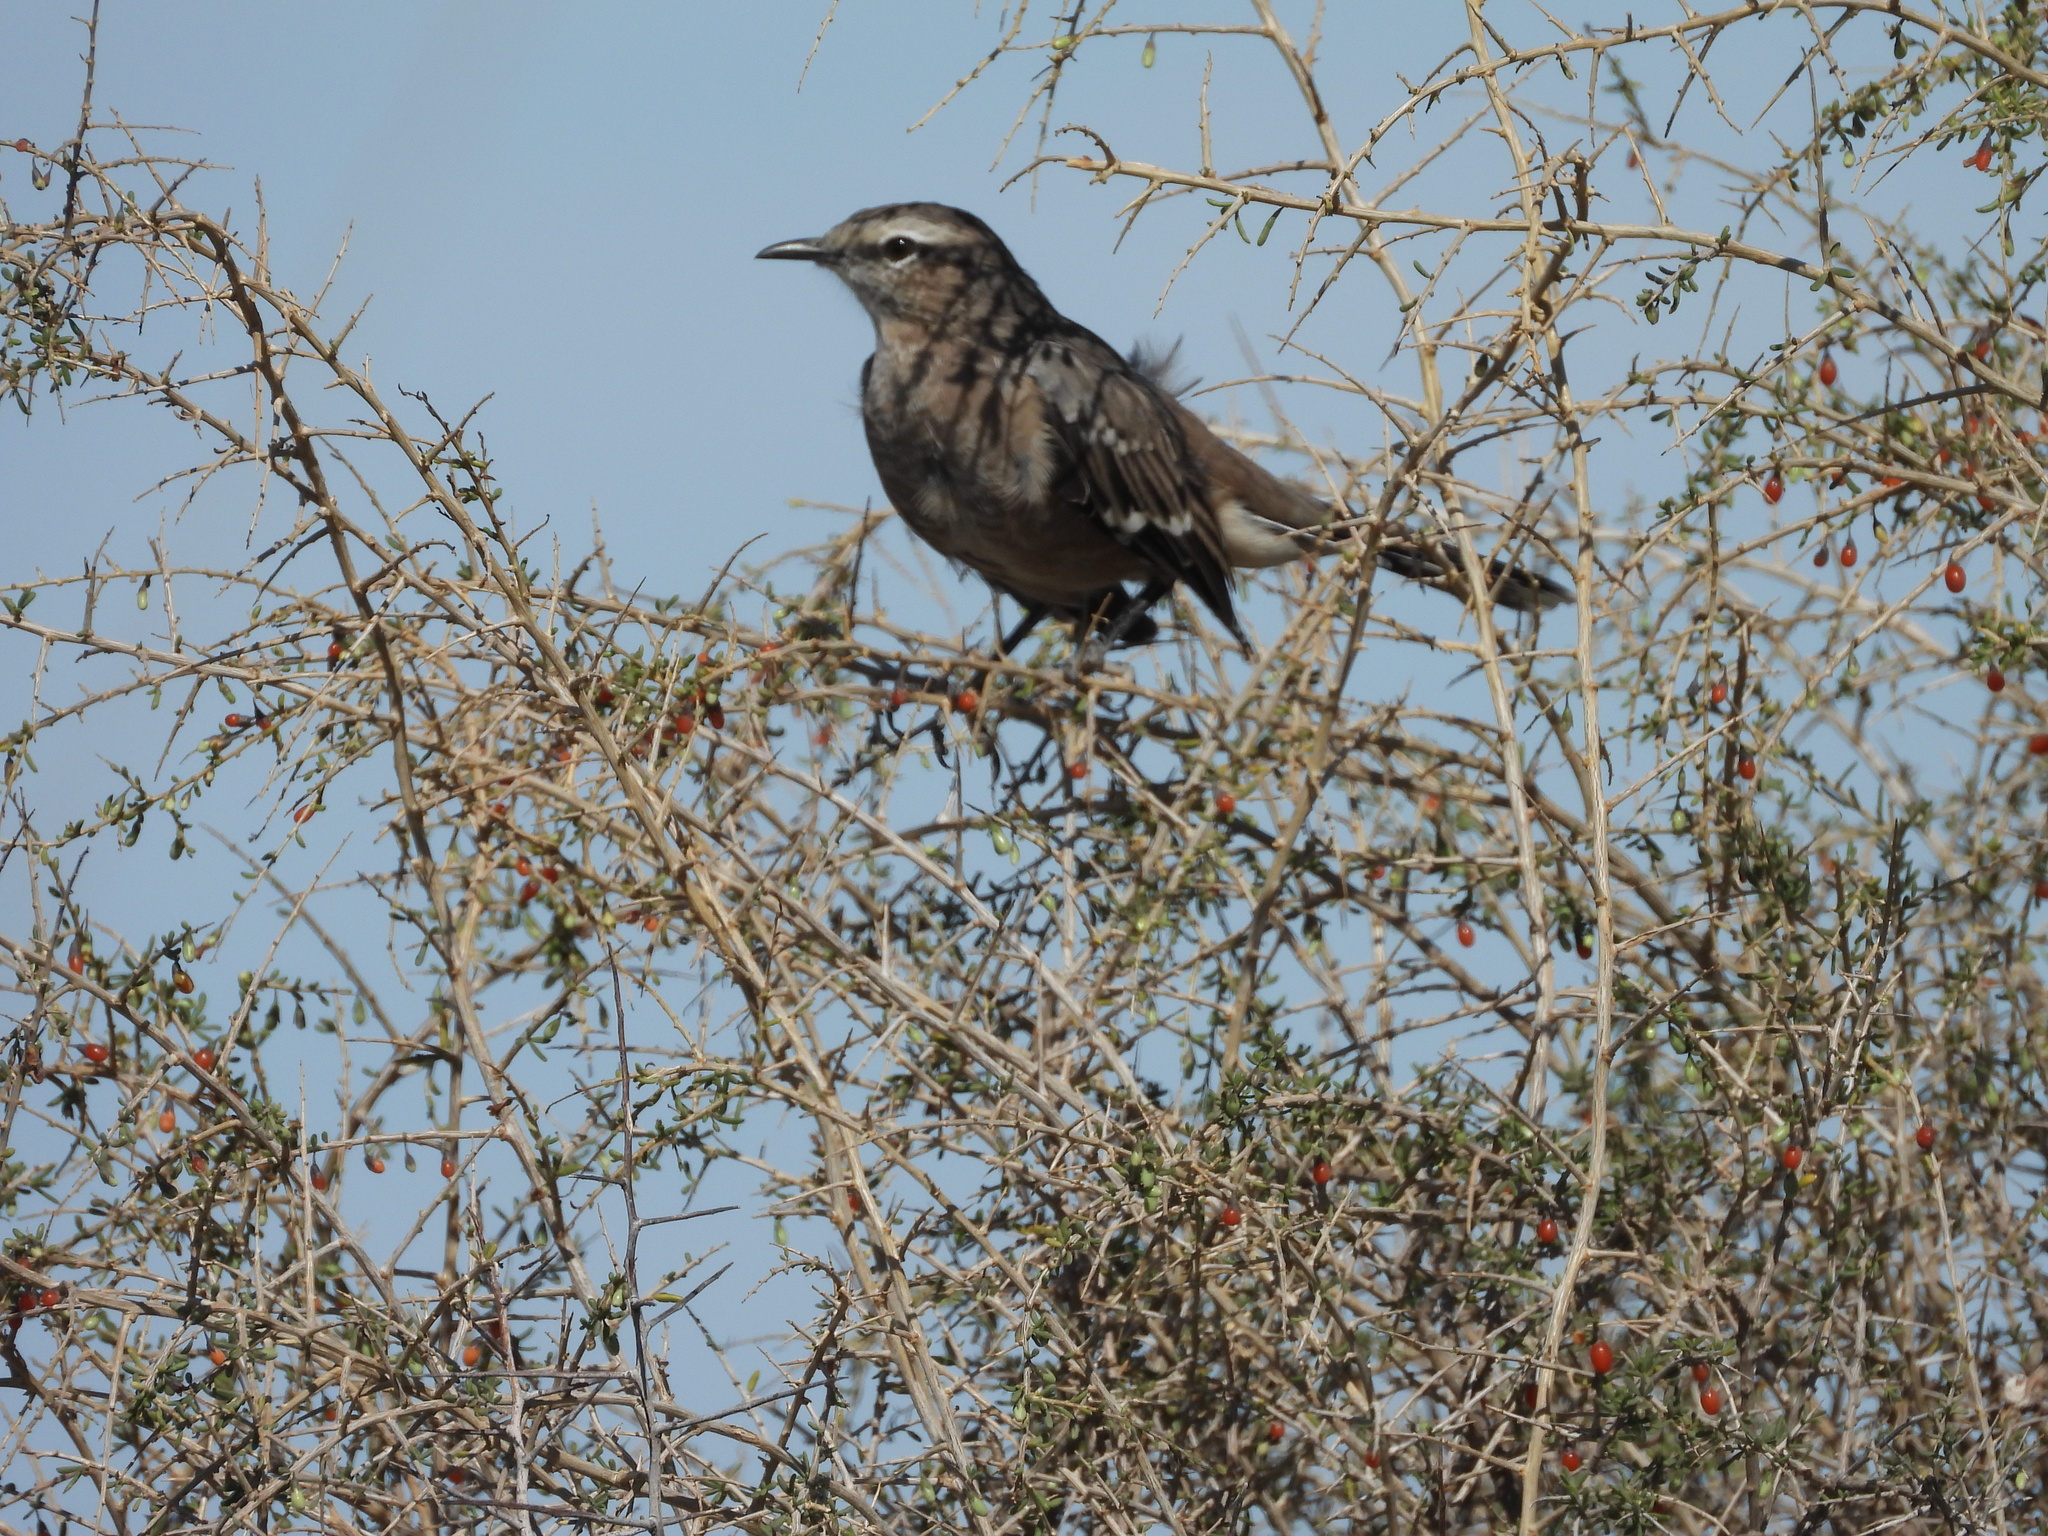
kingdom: Animalia
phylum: Chordata
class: Aves
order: Passeriformes
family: Mimidae
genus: Mimus
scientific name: Mimus patagonicus
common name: Patagonian mockingbird
